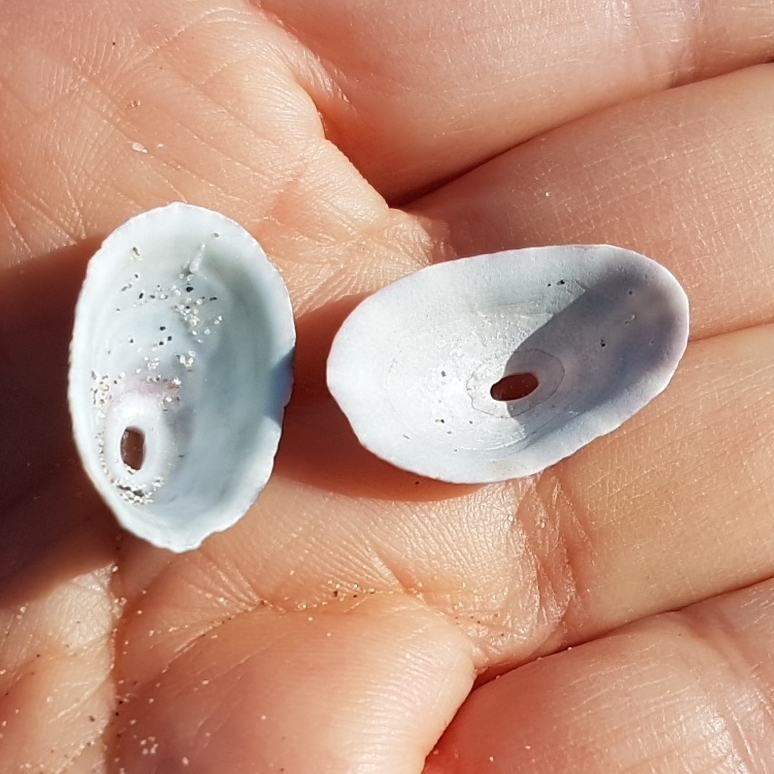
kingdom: Animalia
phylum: Mollusca
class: Gastropoda
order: Lepetellida
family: Fissurellidae
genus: Fissurella
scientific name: Fissurella nubecula
